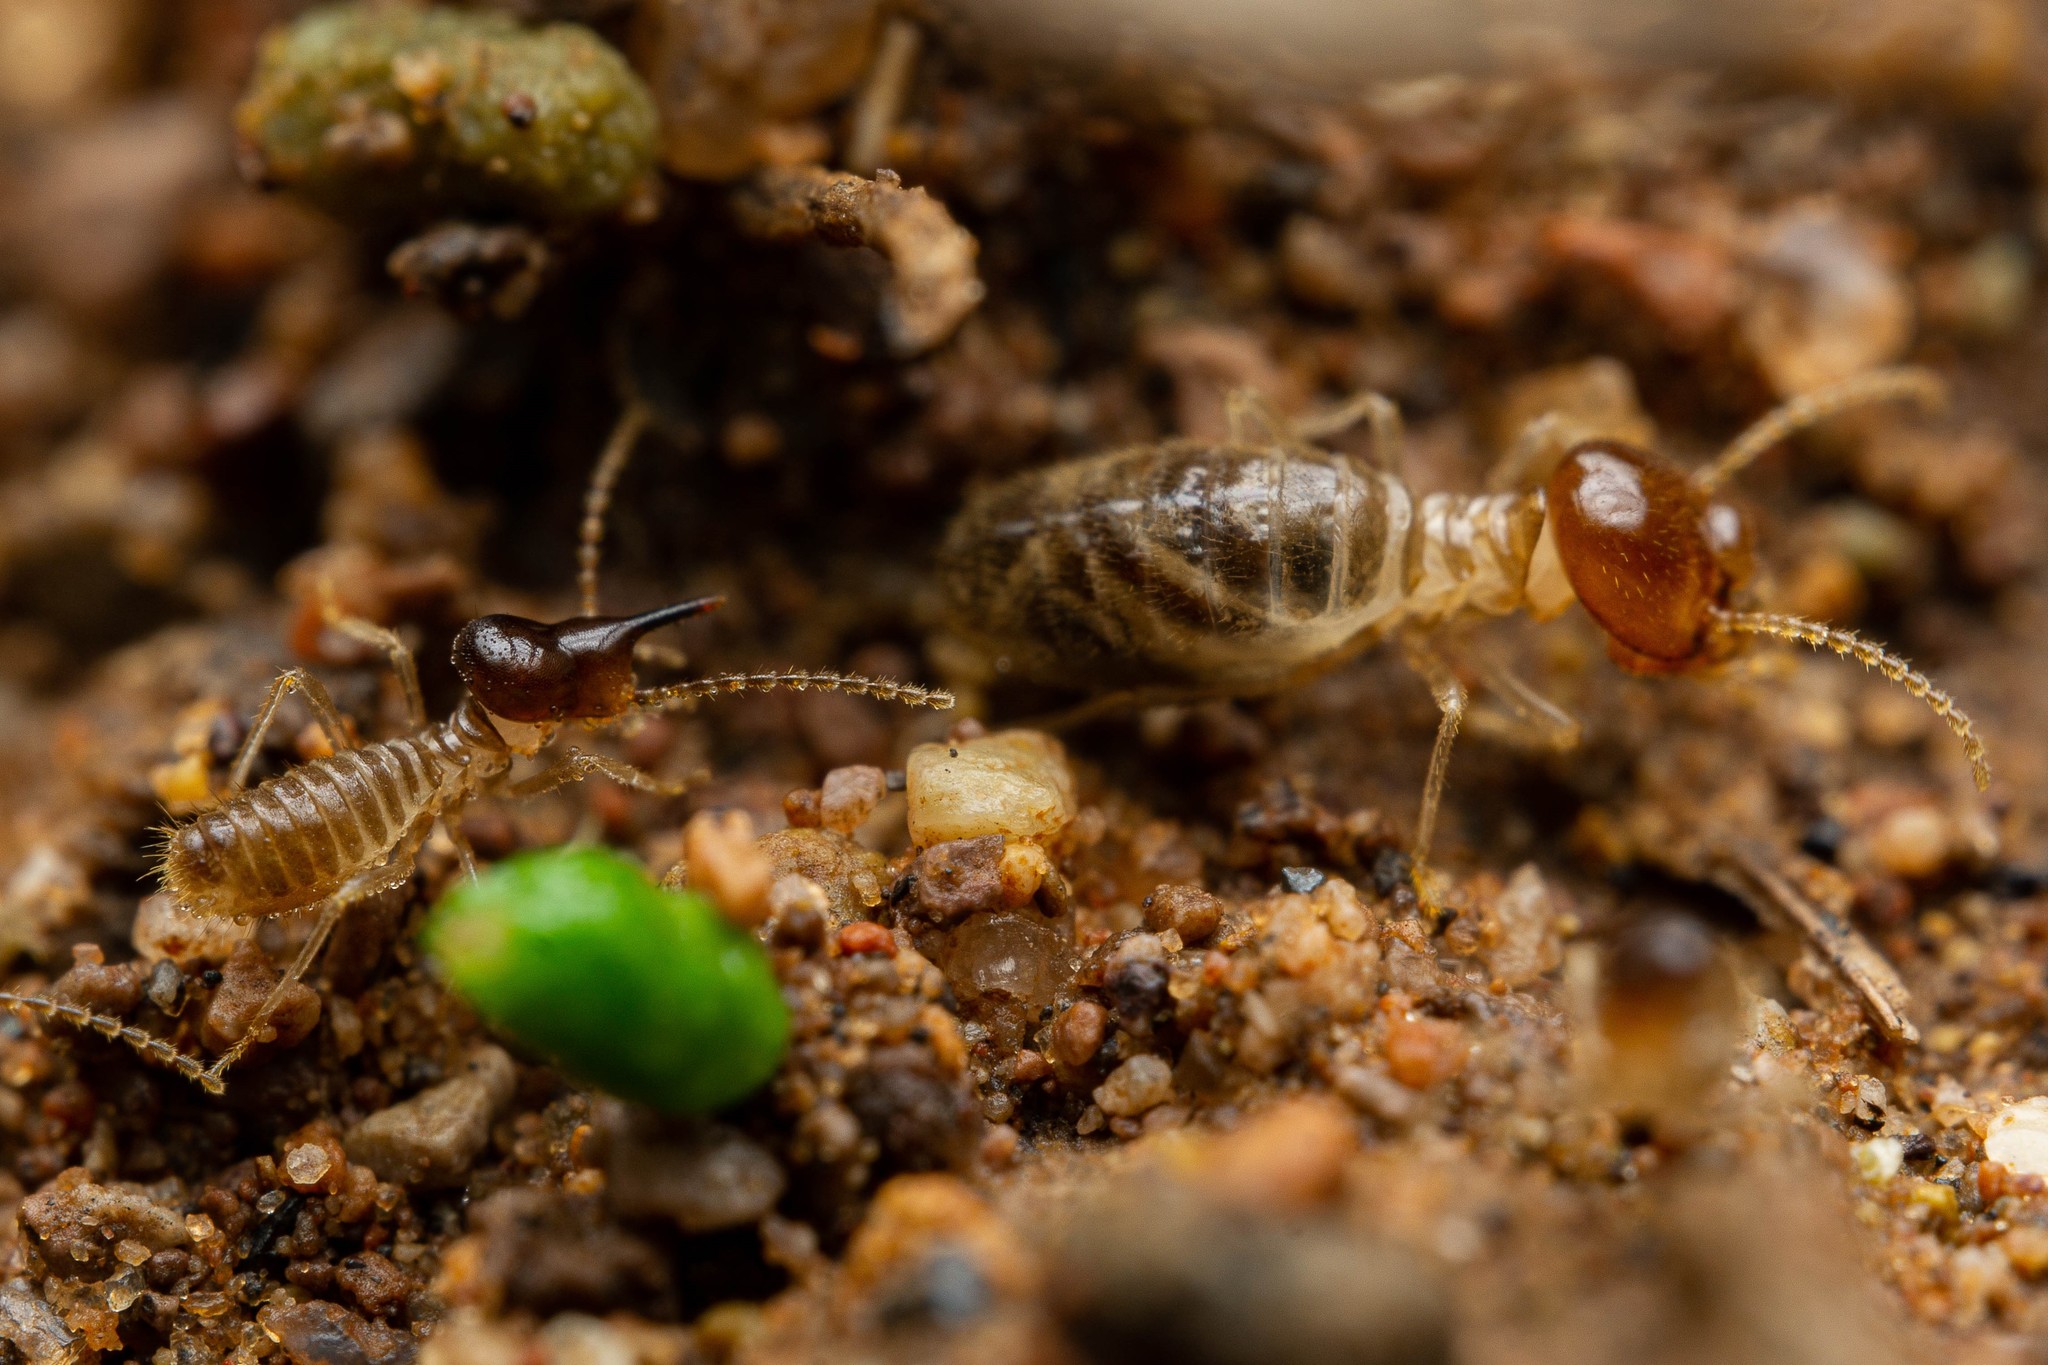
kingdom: Animalia
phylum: Arthropoda
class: Insecta
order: Blattodea
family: Termitidae
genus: Tenuirostritermes
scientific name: Tenuirostritermes tenuirostris
